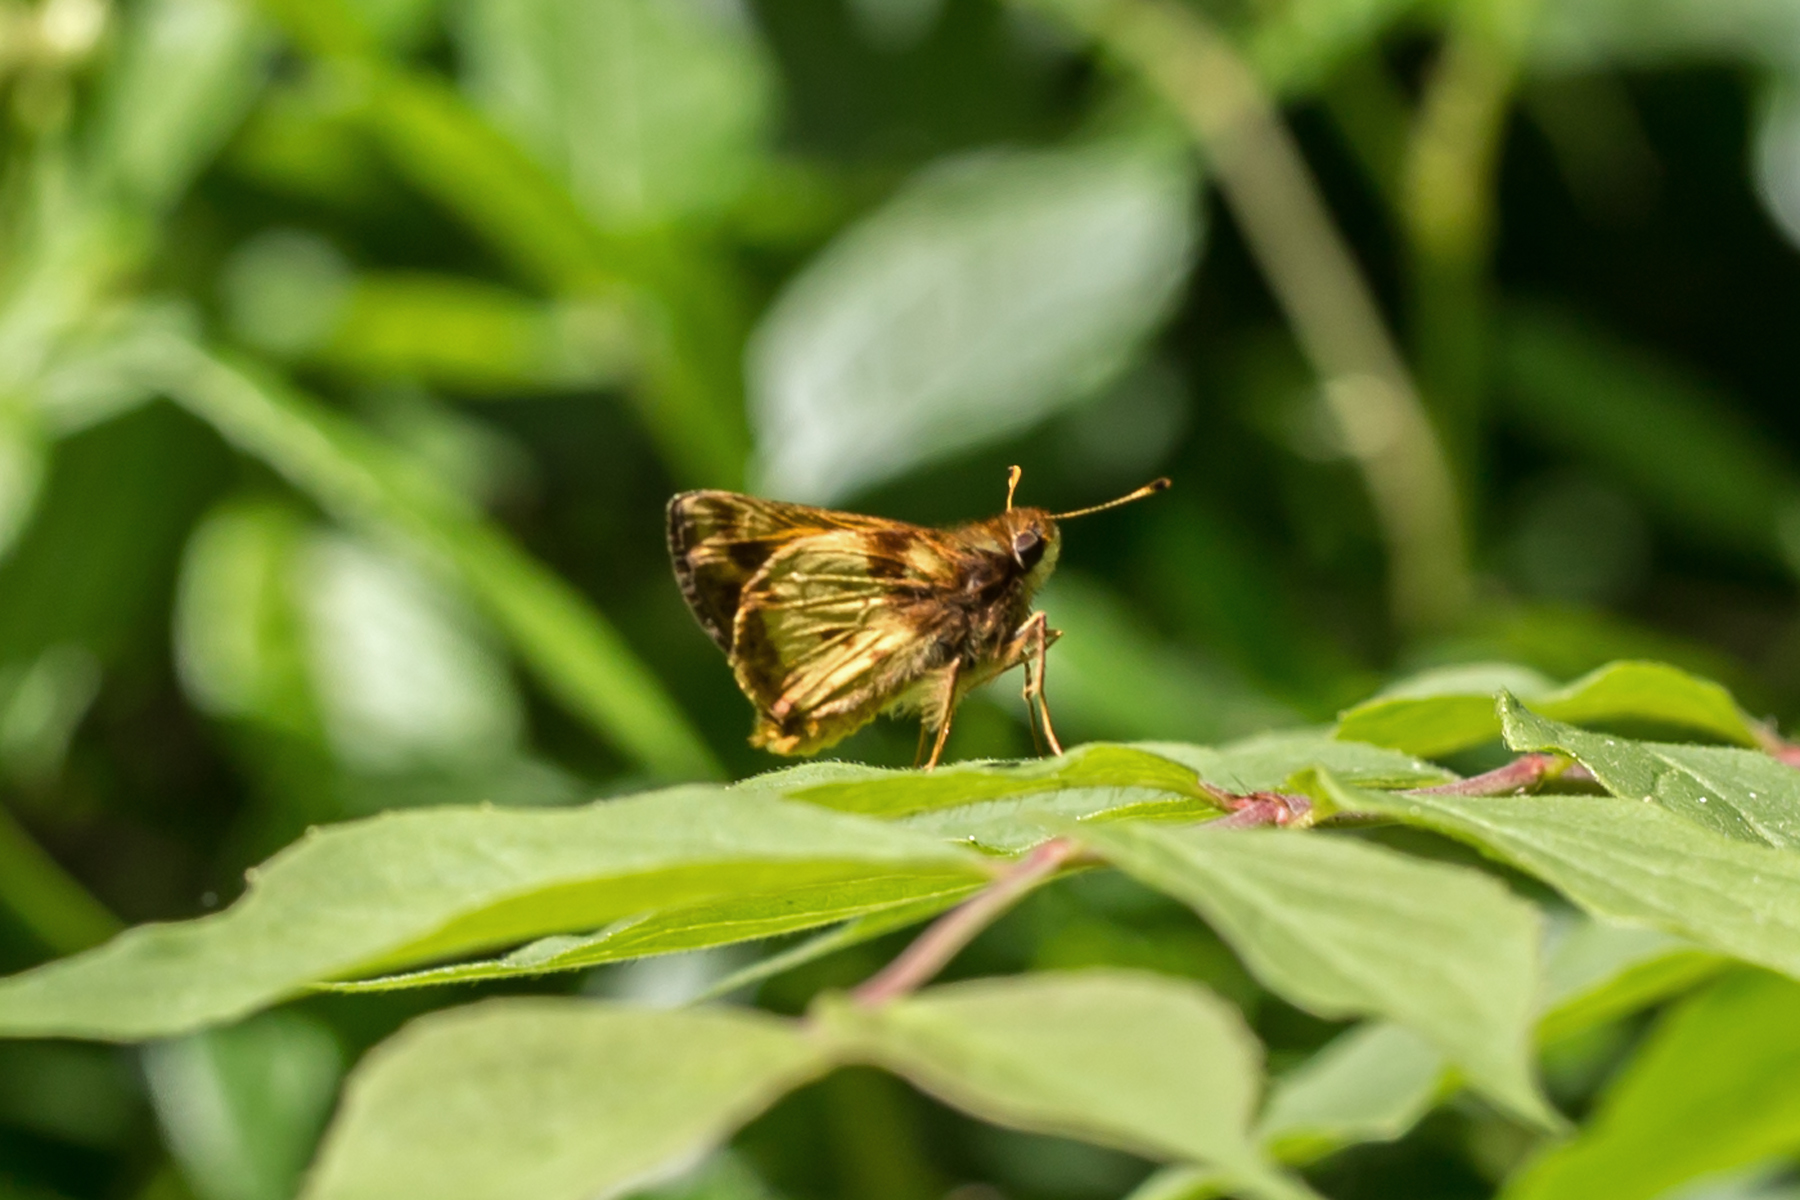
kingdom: Animalia
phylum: Arthropoda
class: Insecta
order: Lepidoptera
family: Hesperiidae
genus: Lon
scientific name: Lon zabulon
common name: Zabulon skipper
